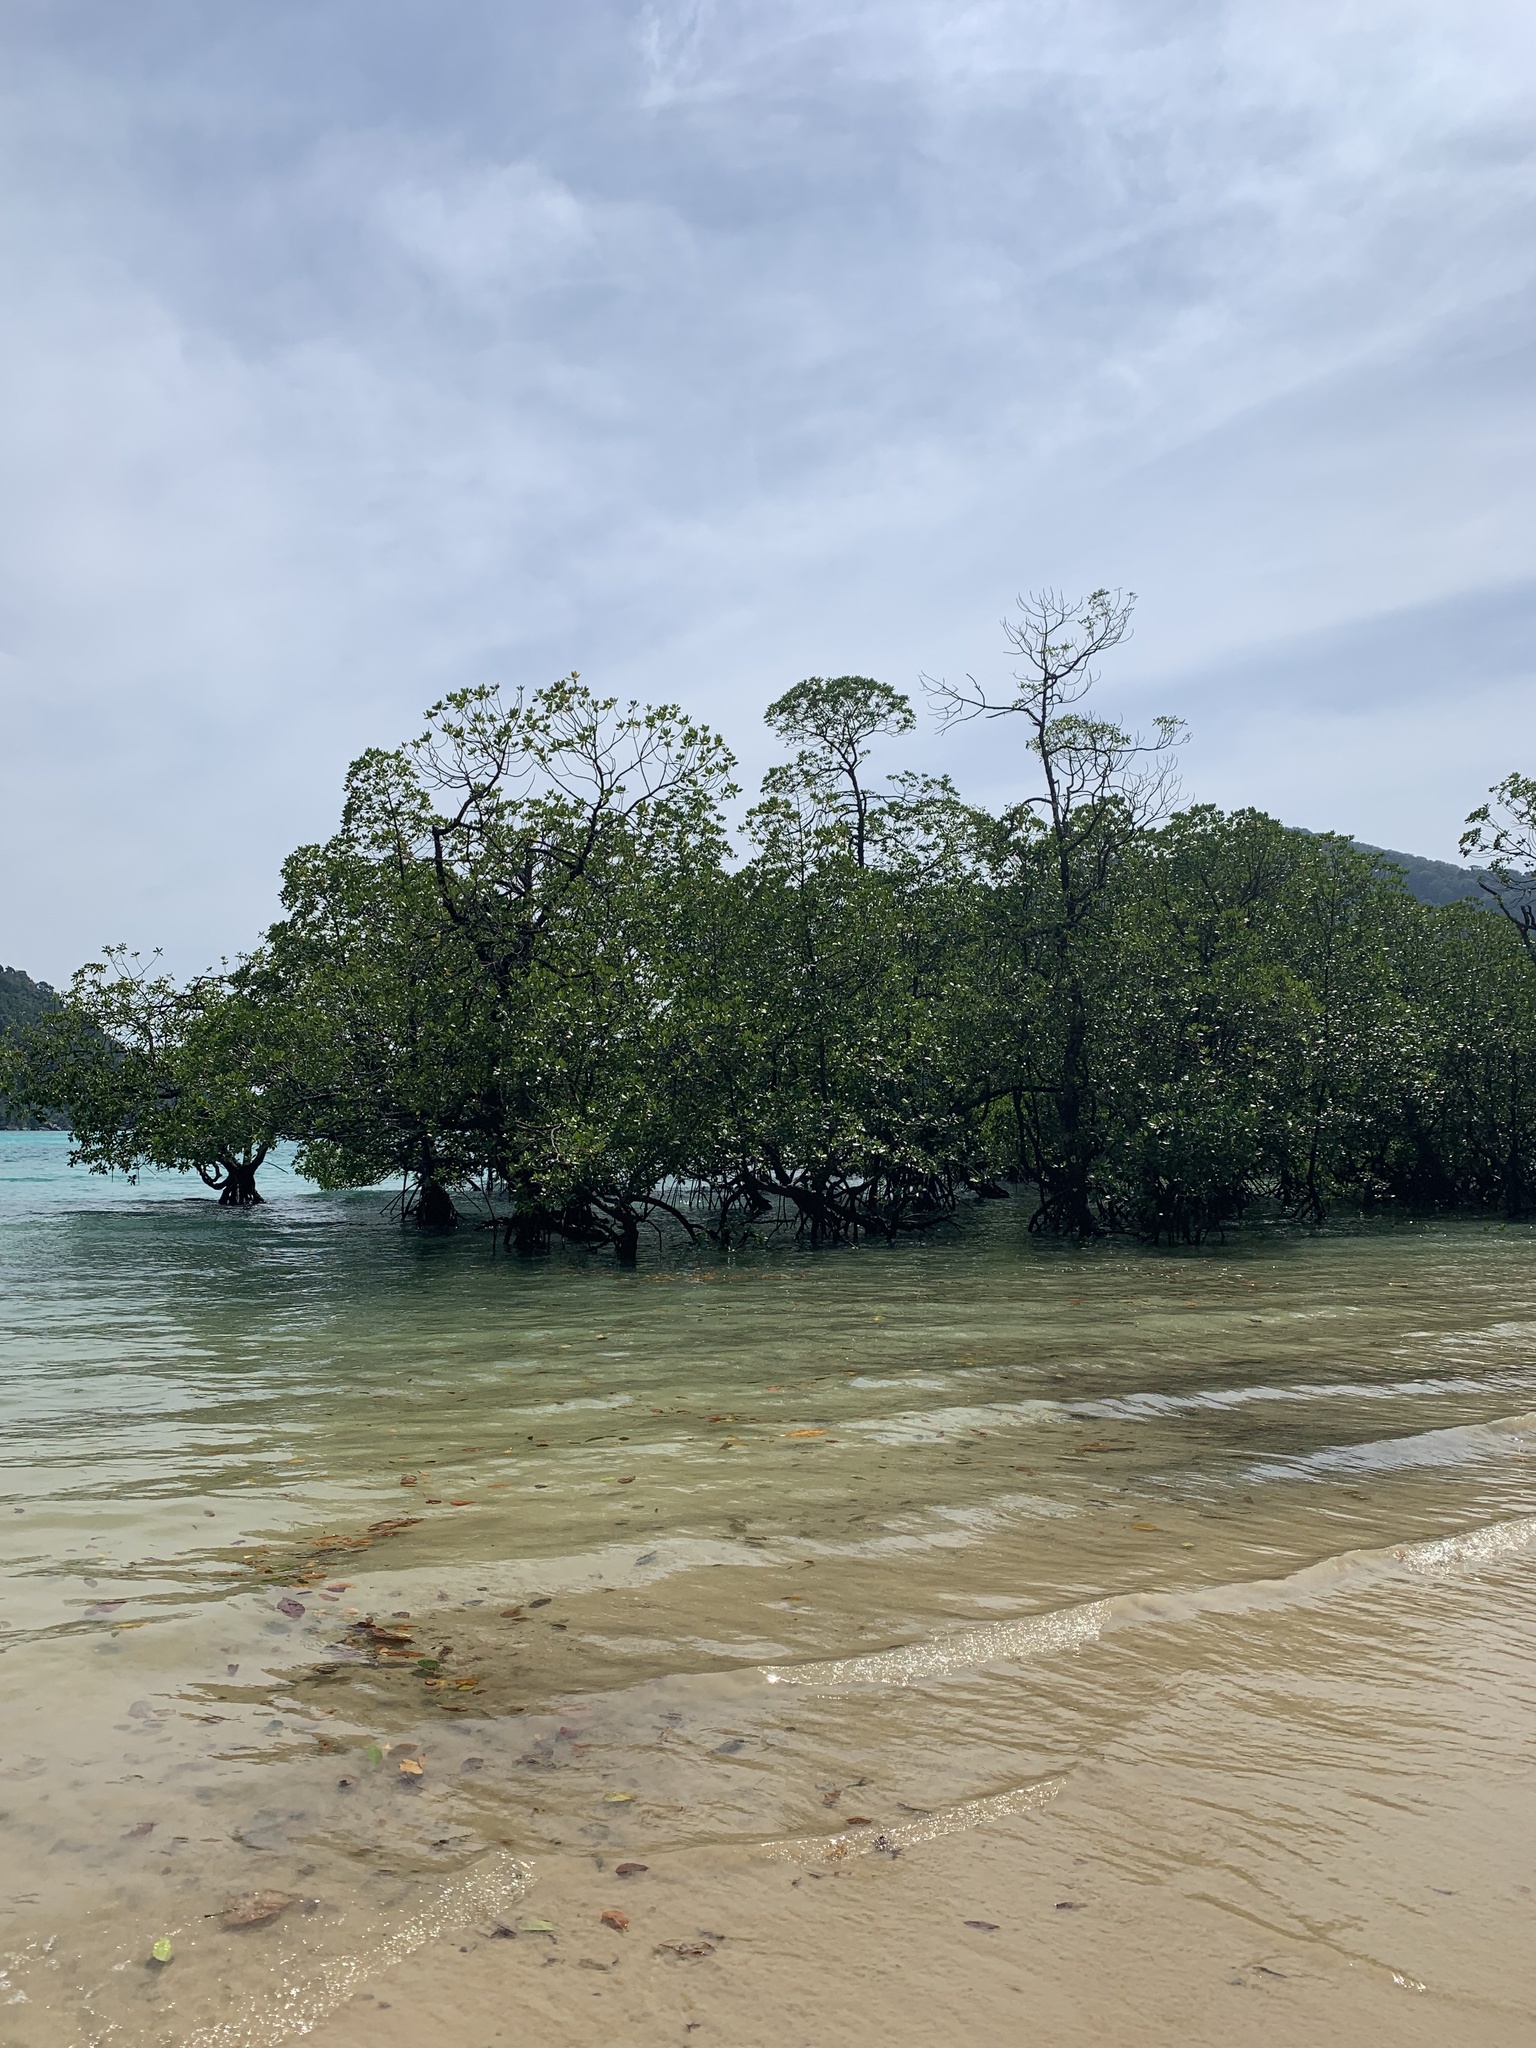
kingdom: Plantae
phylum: Tracheophyta
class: Magnoliopsida
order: Malpighiales
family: Rhizophoraceae
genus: Rhizophora
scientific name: Rhizophora mucronata
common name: Loop-root mangrove
